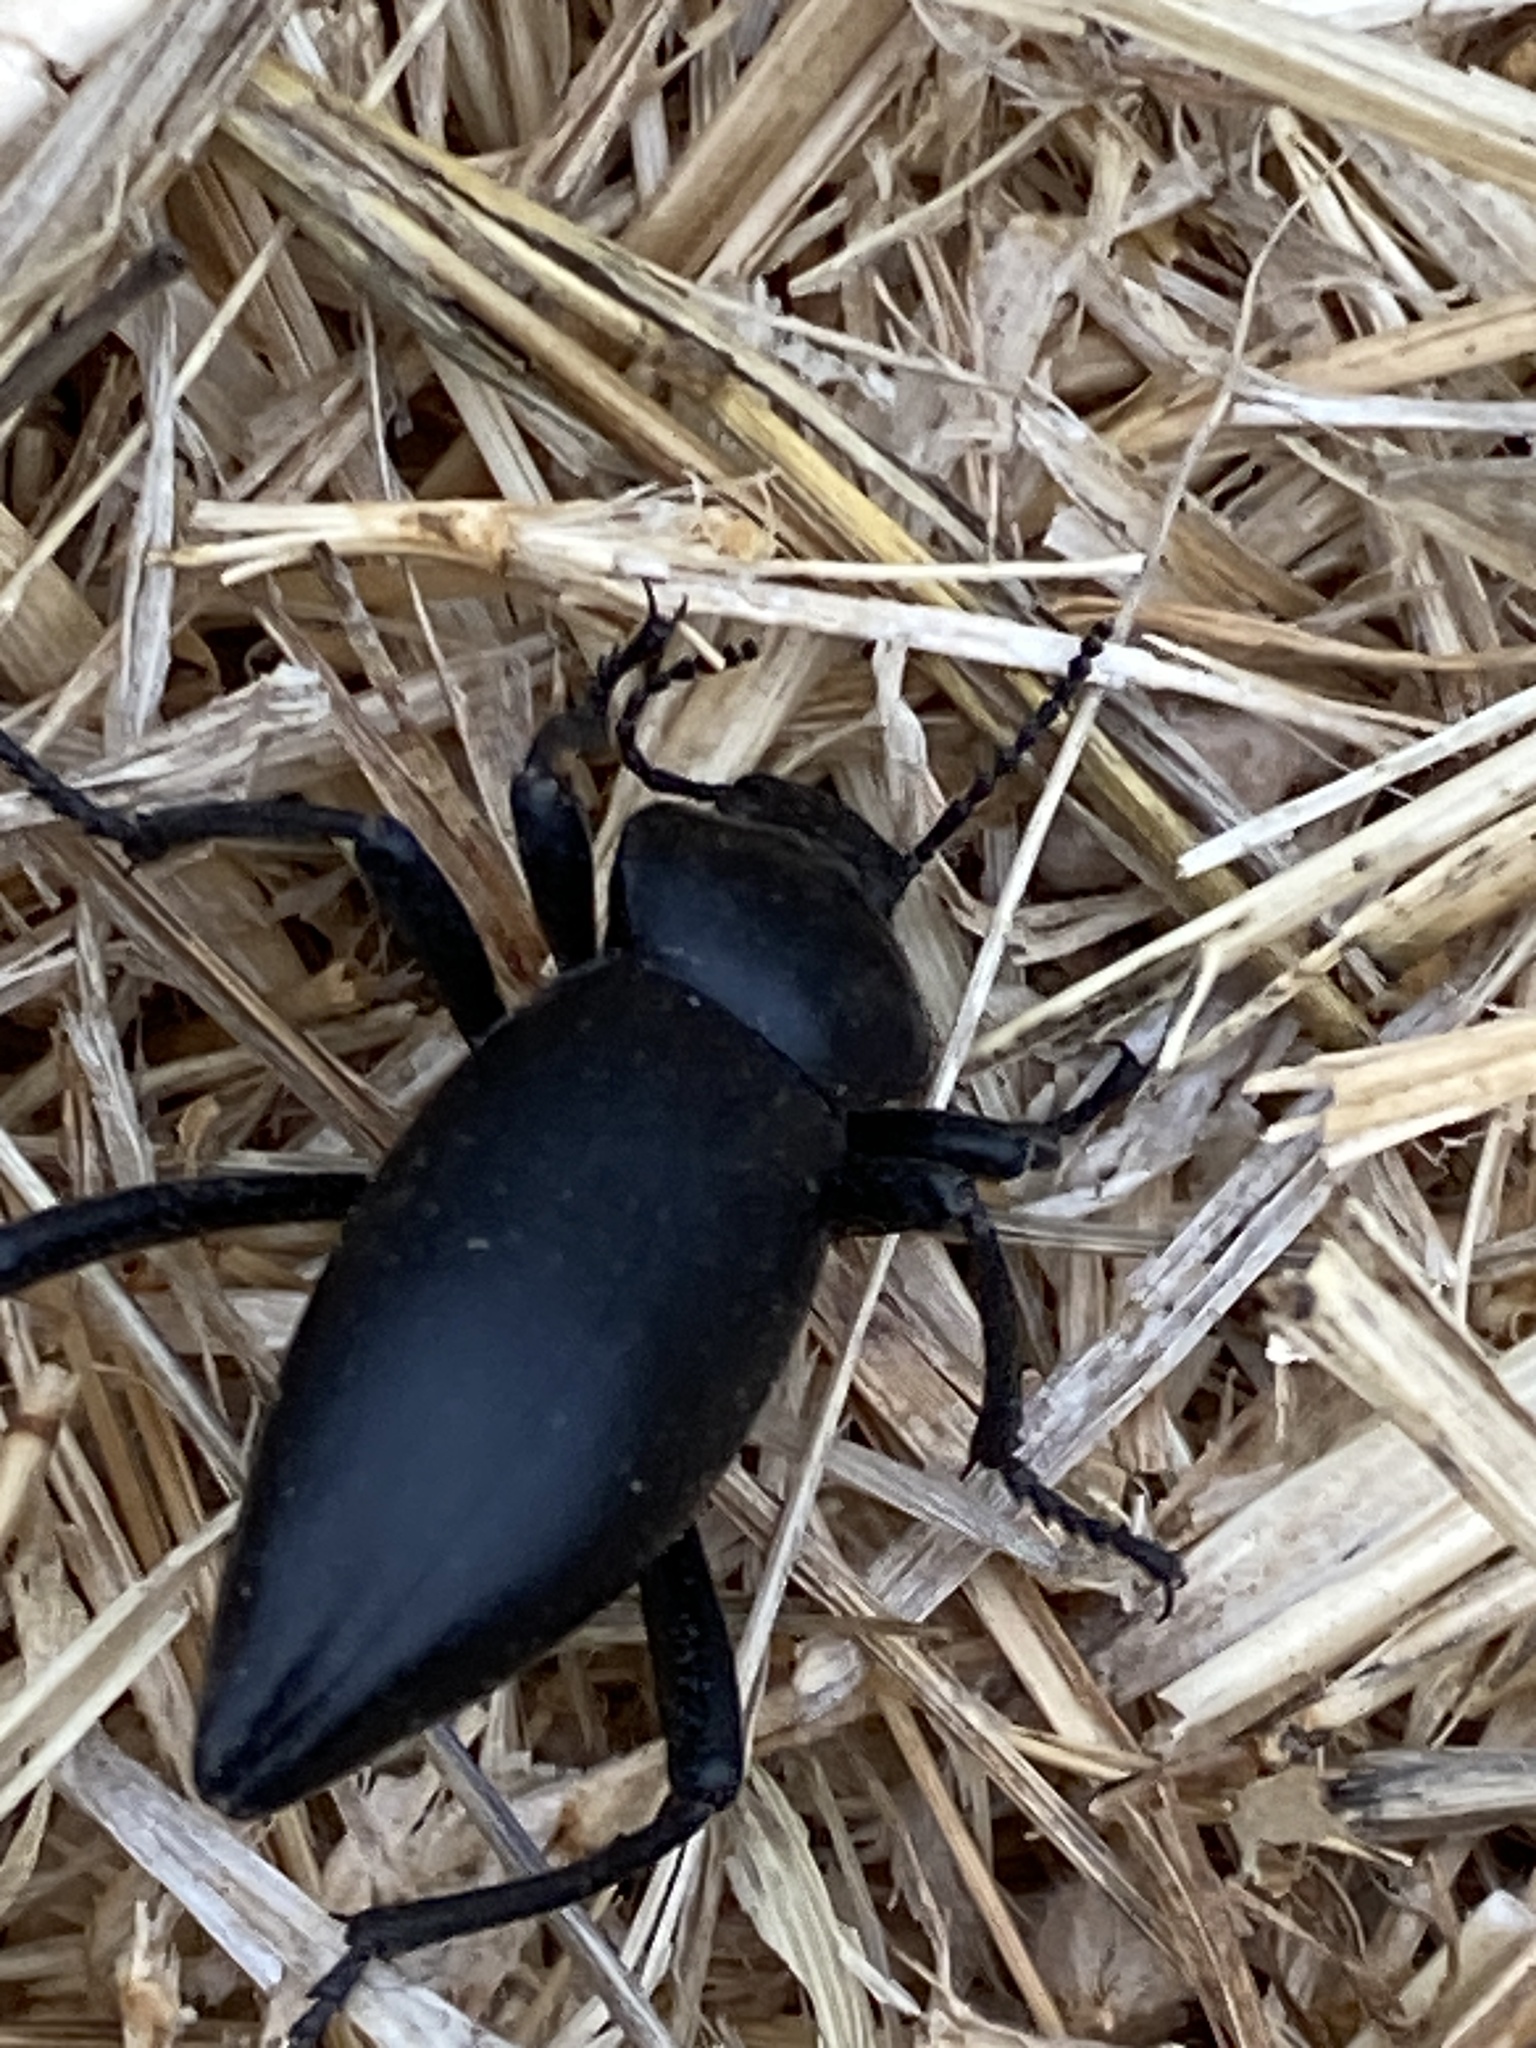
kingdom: Animalia
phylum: Arthropoda
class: Insecta
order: Coleoptera
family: Tenebrionidae
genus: Eleodes
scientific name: Eleodes acuticauda
